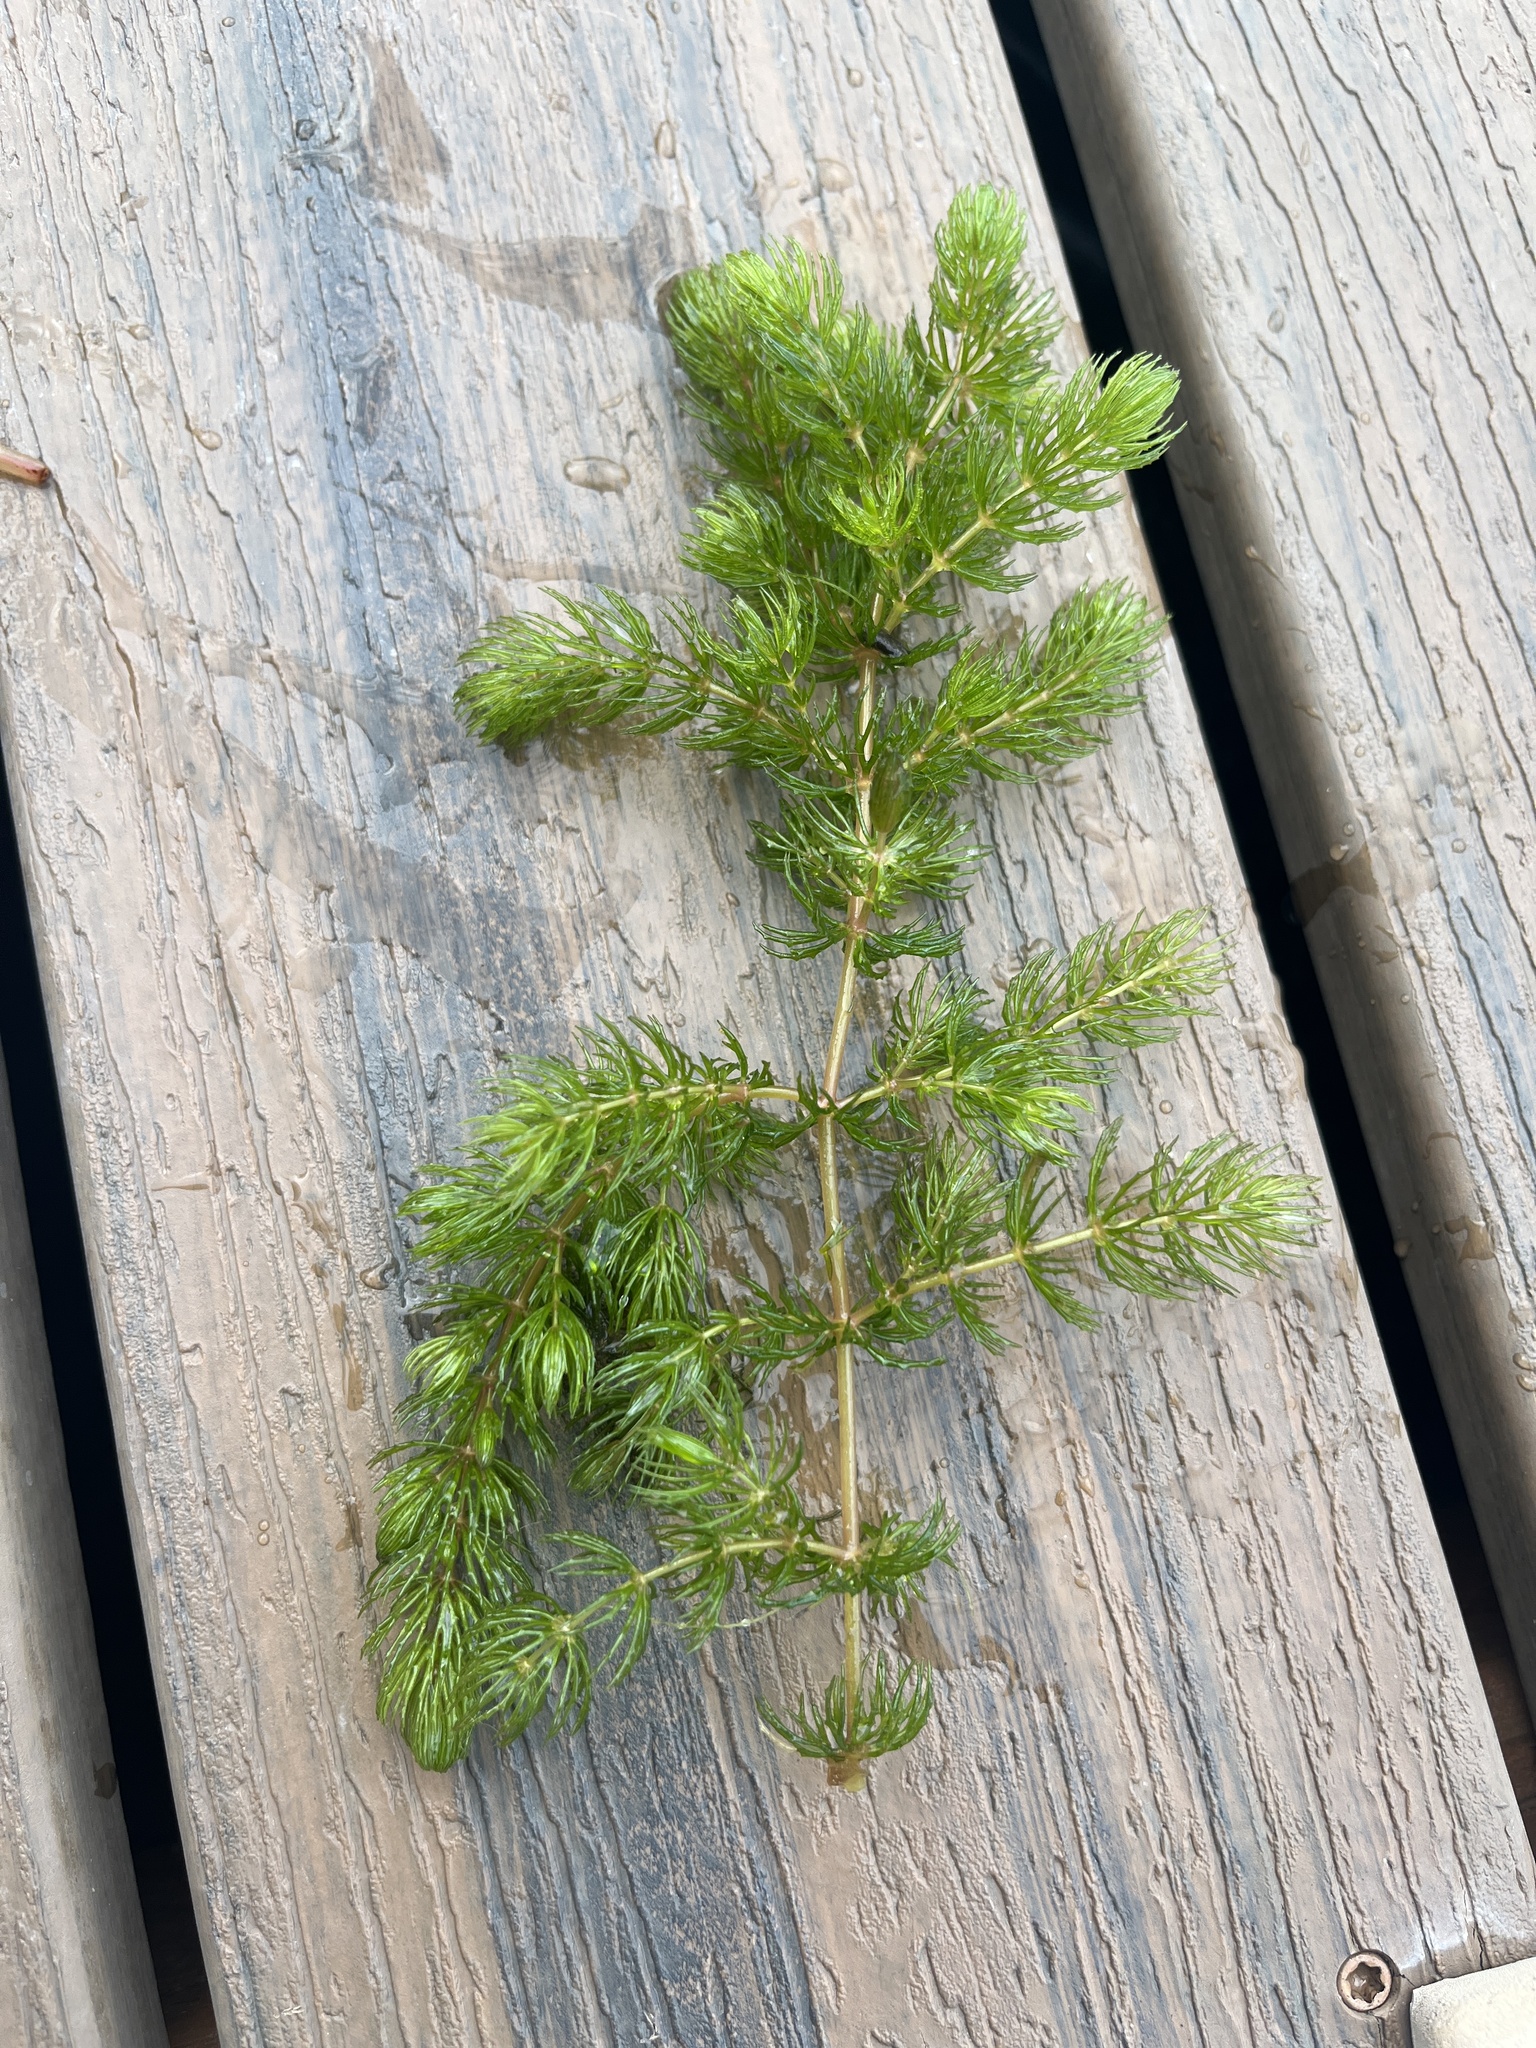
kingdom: Plantae
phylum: Tracheophyta
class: Magnoliopsida
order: Ceratophyllales
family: Ceratophyllaceae
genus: Ceratophyllum
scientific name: Ceratophyllum demersum
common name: Rigid hornwort
